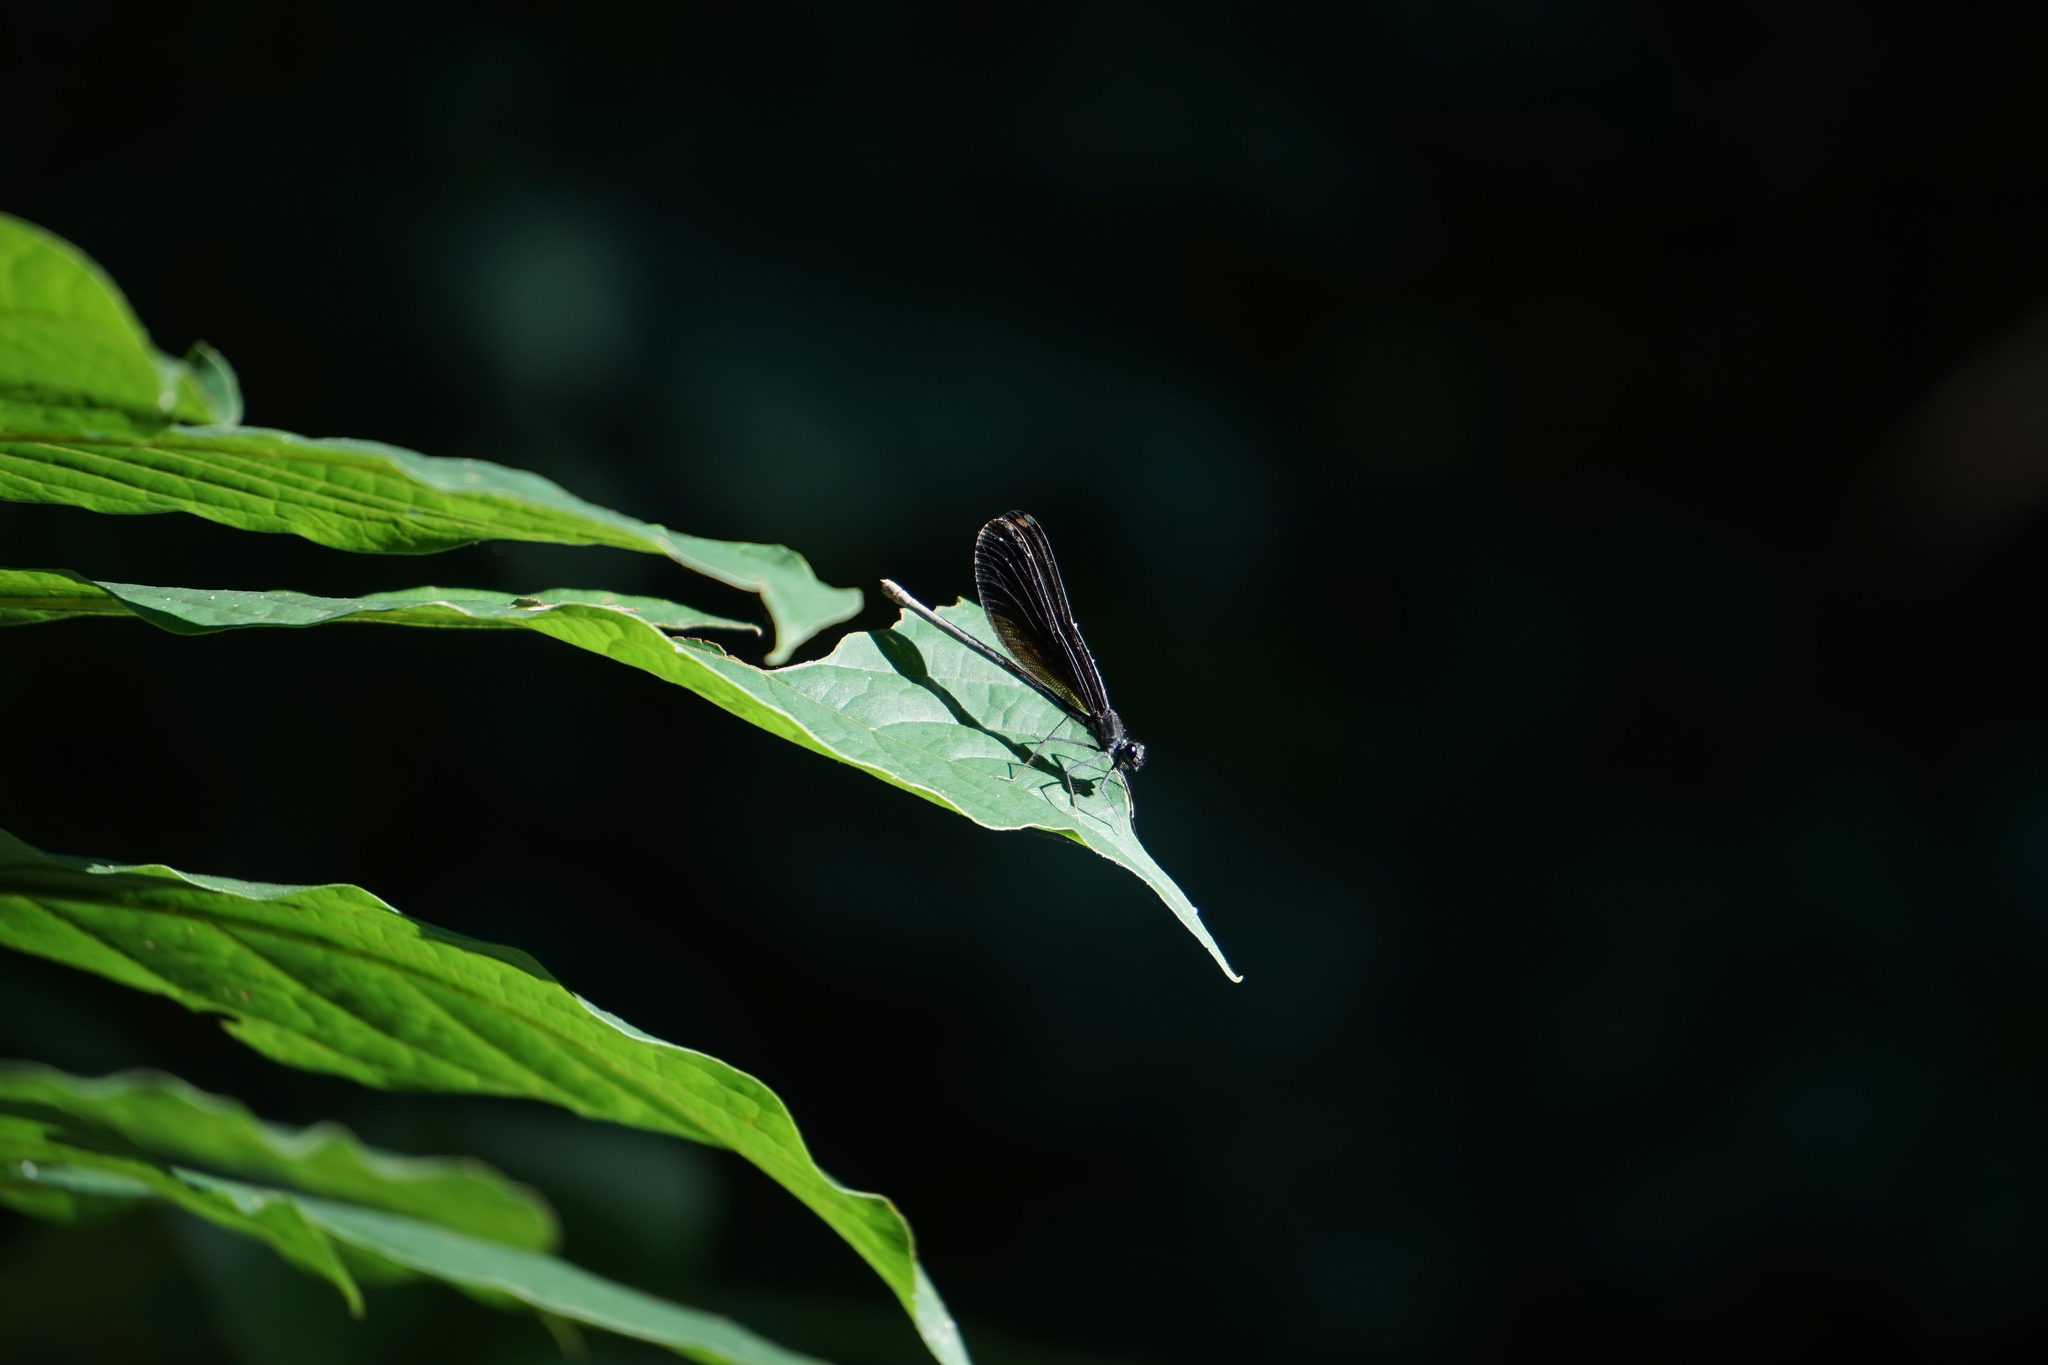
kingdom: Animalia
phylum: Arthropoda
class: Insecta
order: Odonata
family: Calopterygidae
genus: Calopteryx
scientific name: Calopteryx maculata
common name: Ebony jewelwing
